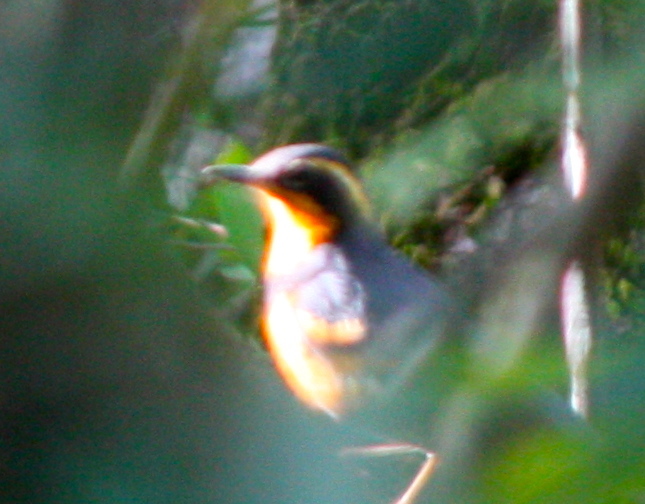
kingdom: Animalia
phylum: Chordata
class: Aves
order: Passeriformes
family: Turdidae
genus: Ixoreus
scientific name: Ixoreus naevius
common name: Varied thrush
